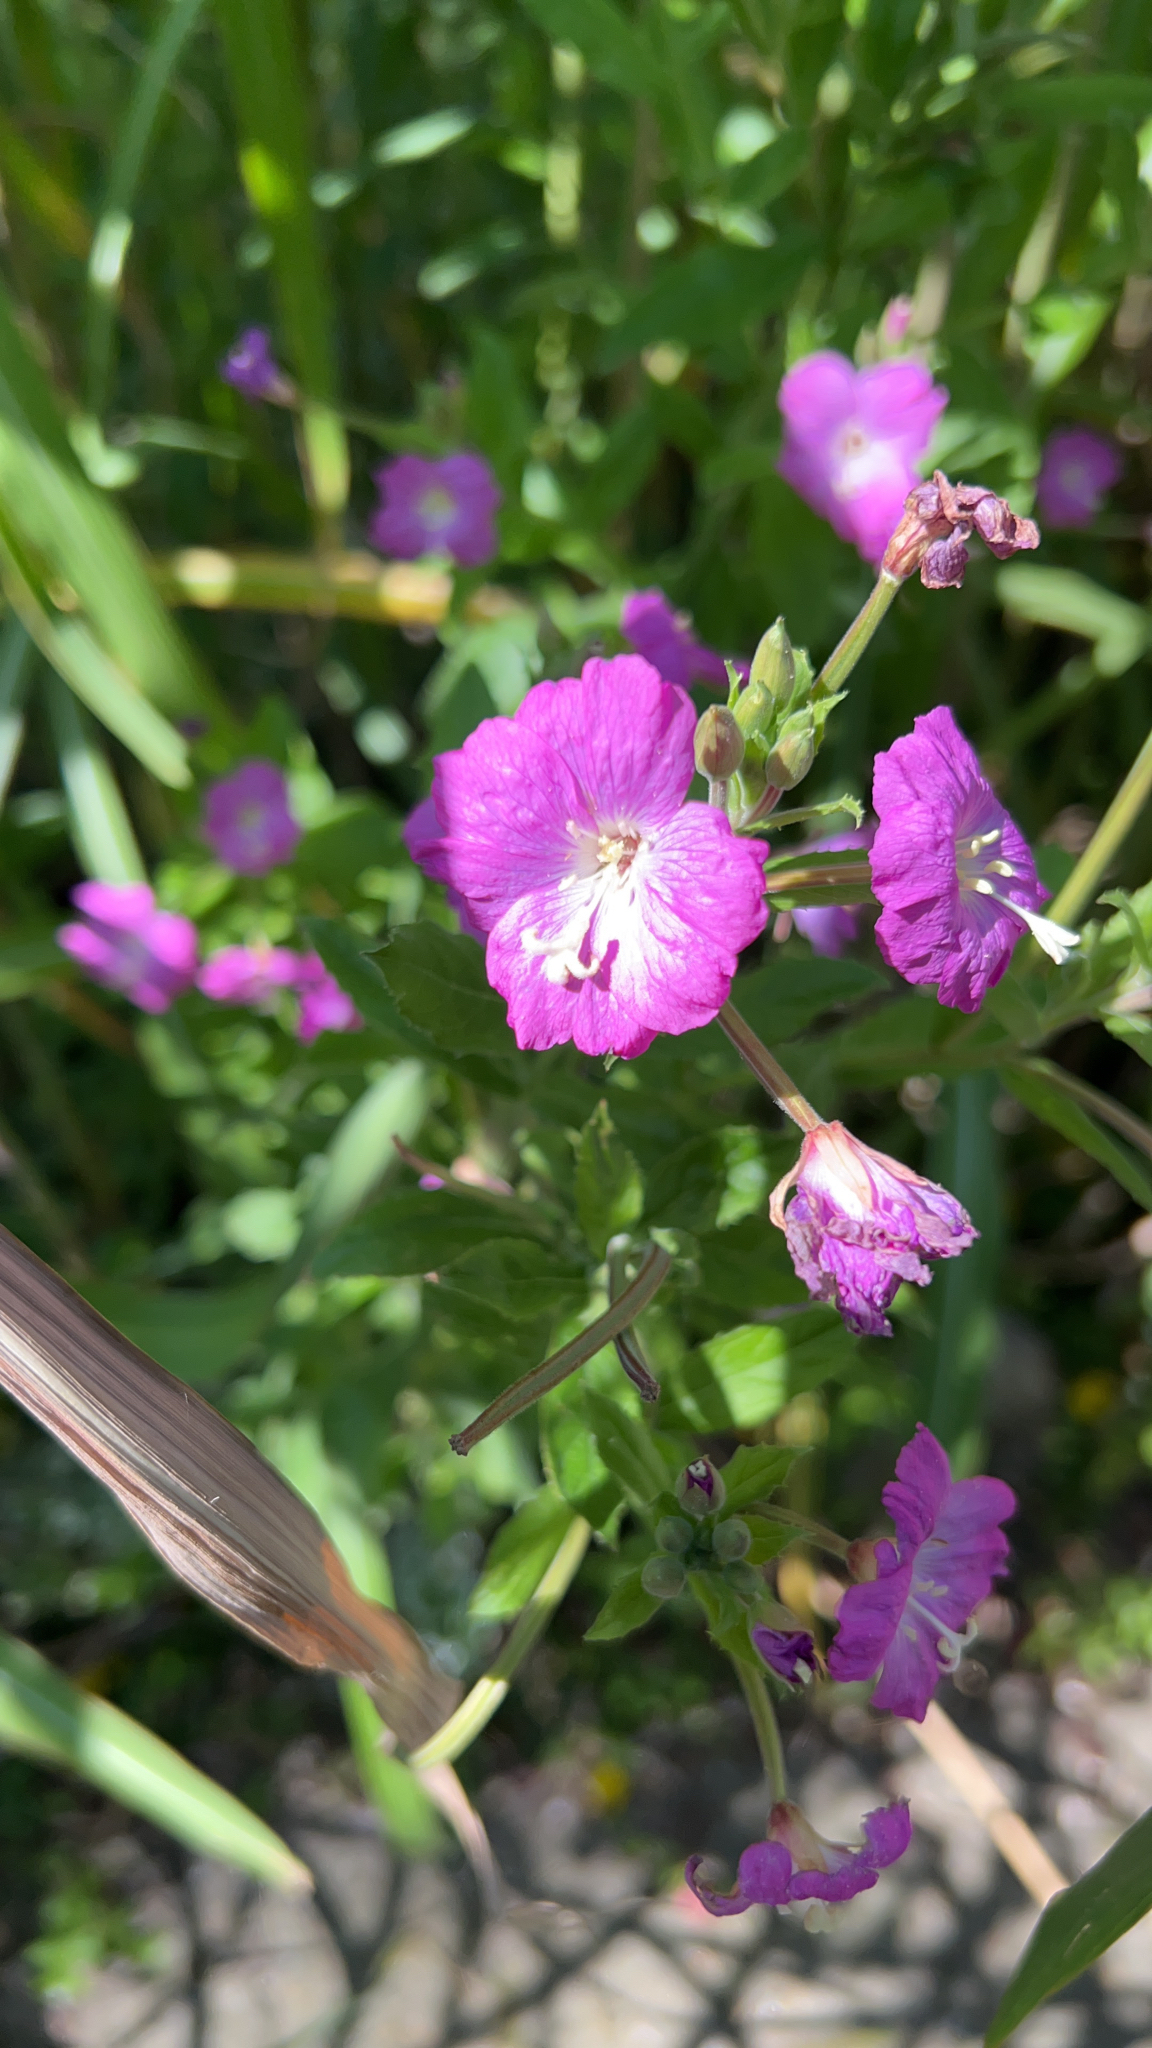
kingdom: Plantae
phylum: Tracheophyta
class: Magnoliopsida
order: Myrtales
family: Onagraceae
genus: Epilobium
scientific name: Epilobium hirsutum
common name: Great willowherb
